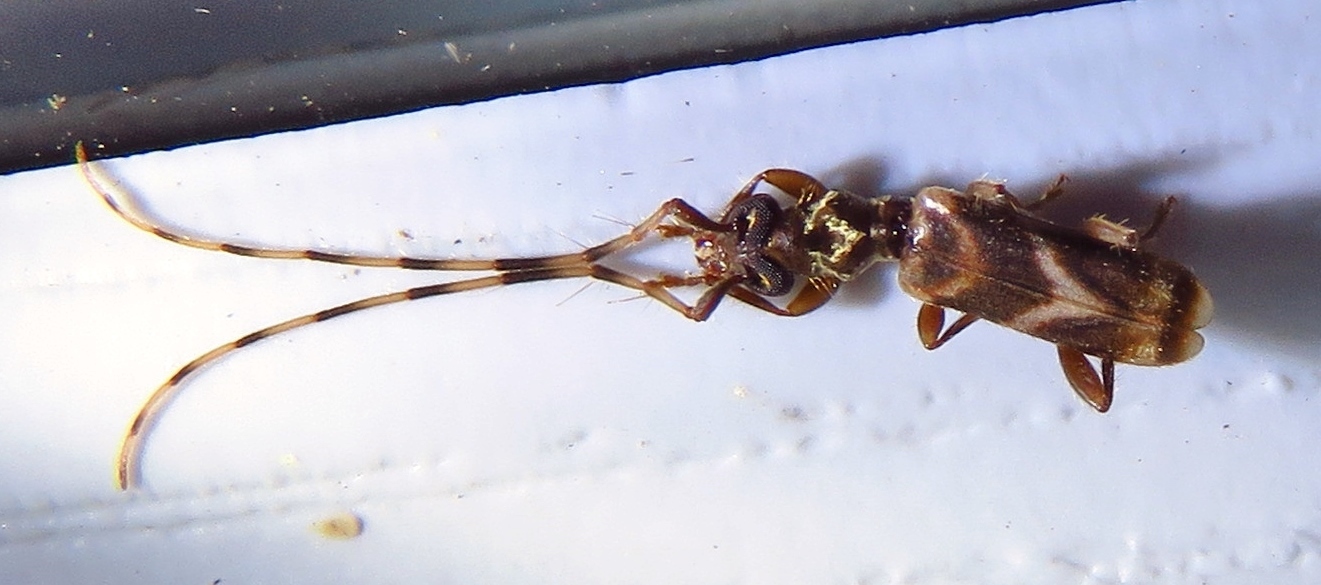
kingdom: Animalia
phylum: Arthropoda
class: Insecta
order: Coleoptera
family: Cerambycidae
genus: Stenhomalus
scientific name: Stenhomalus taiwanus
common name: Taiwan slender longhorned beetle
